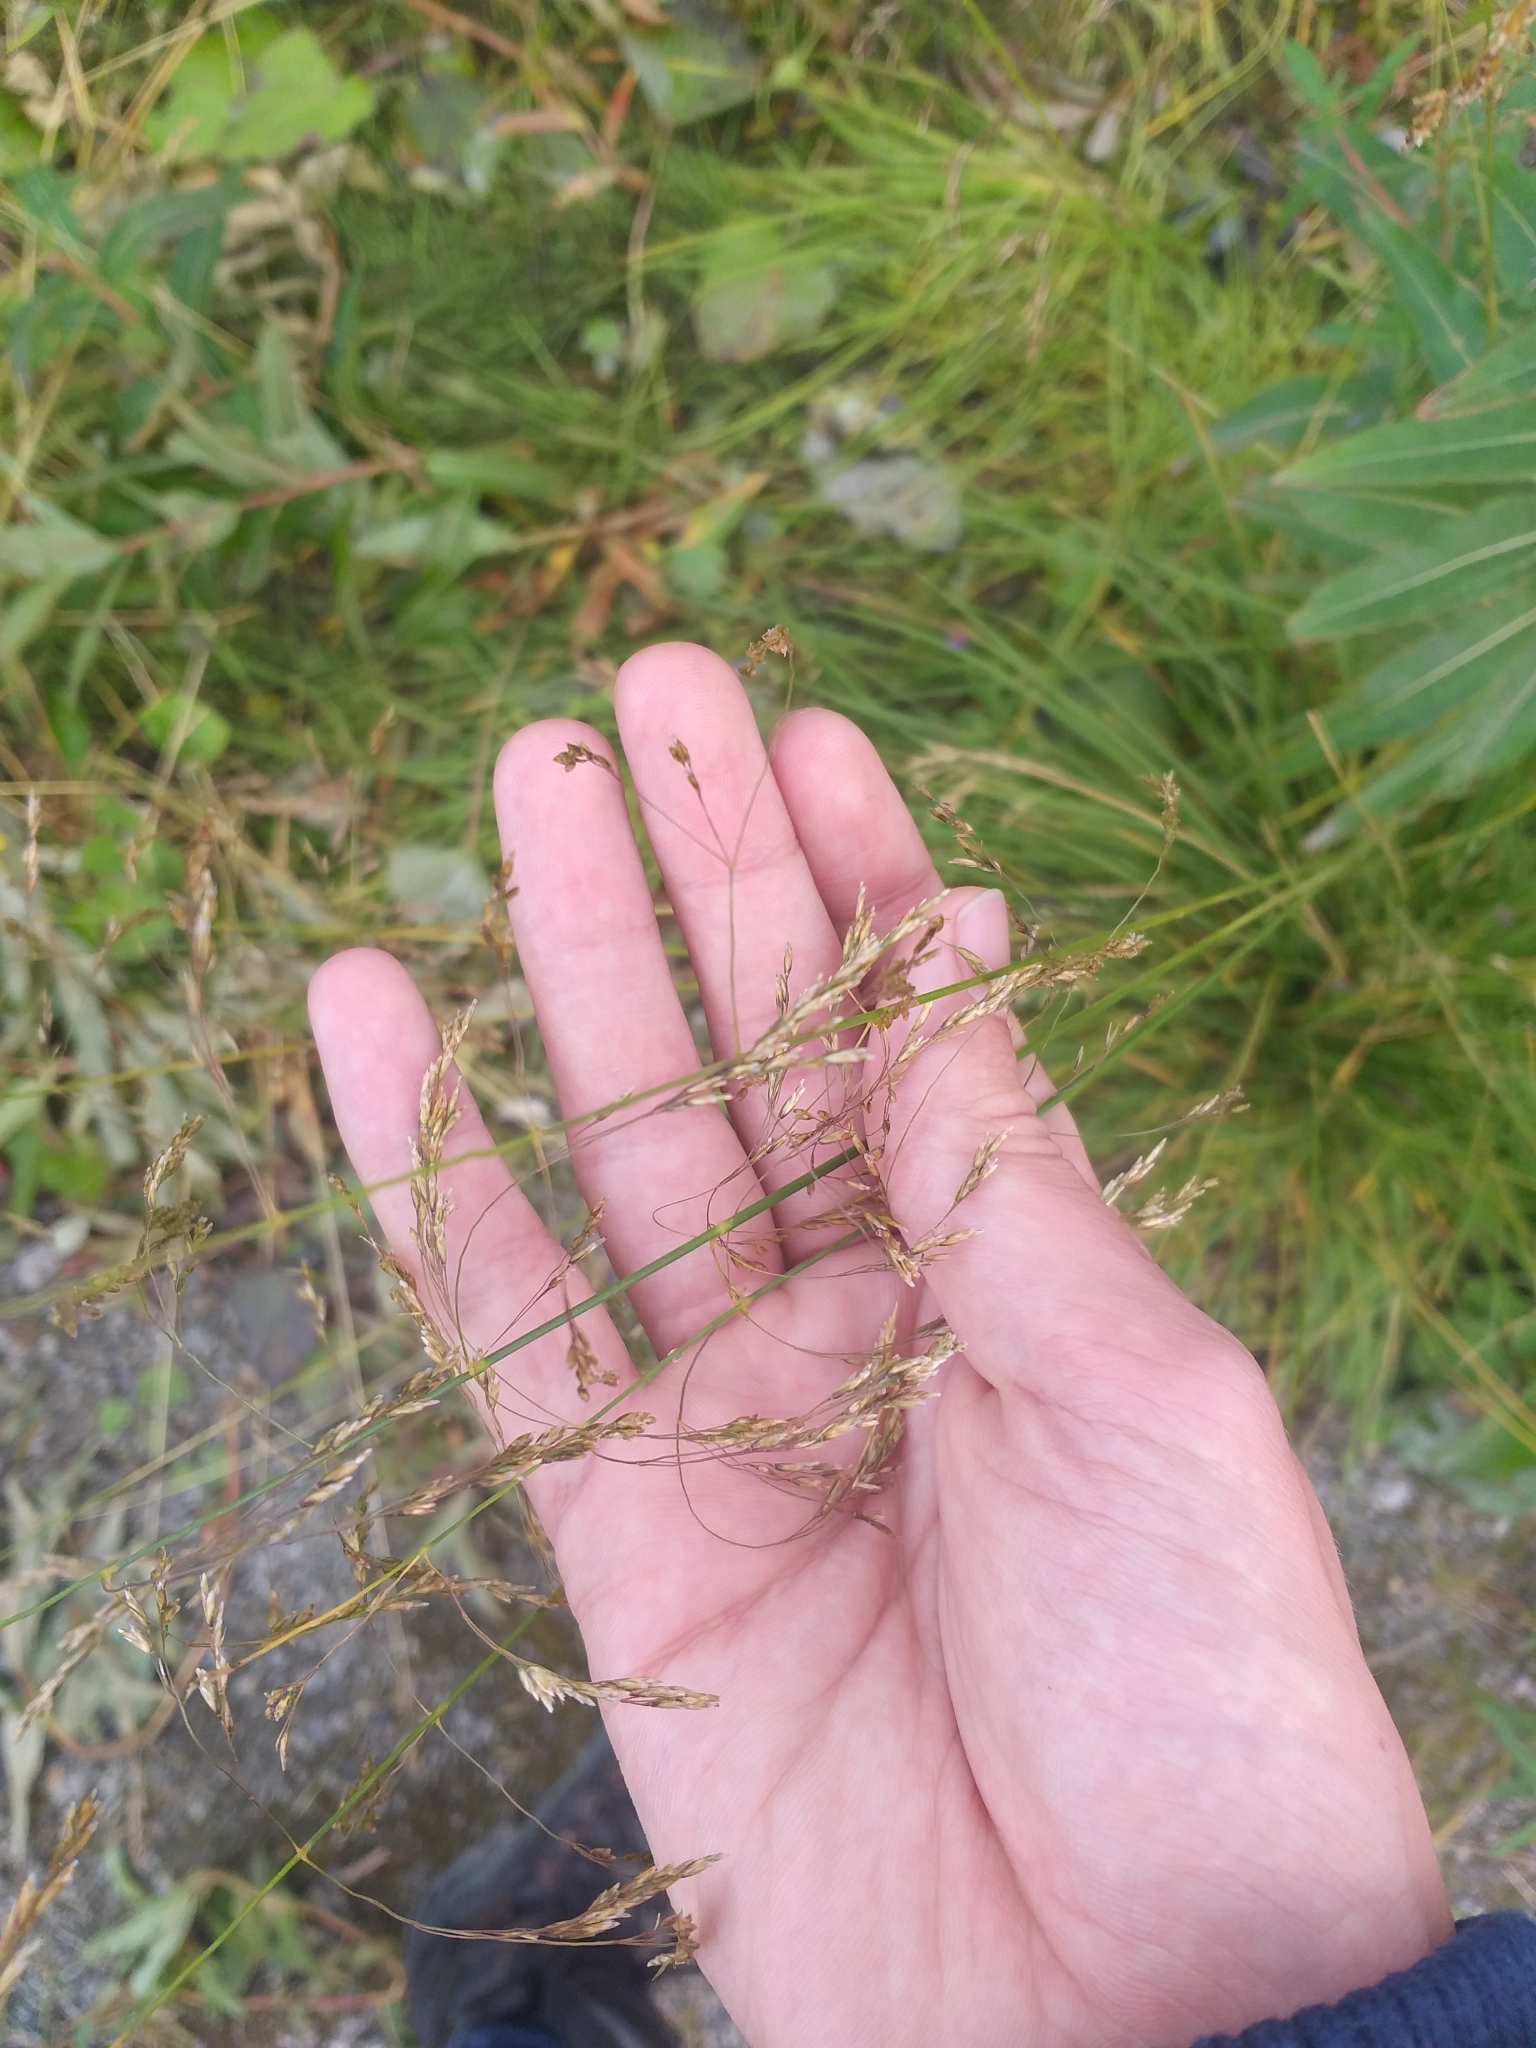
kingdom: Plantae
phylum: Tracheophyta
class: Liliopsida
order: Poales
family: Poaceae
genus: Deschampsia
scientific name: Deschampsia cespitosa
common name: Tufted hair-grass
